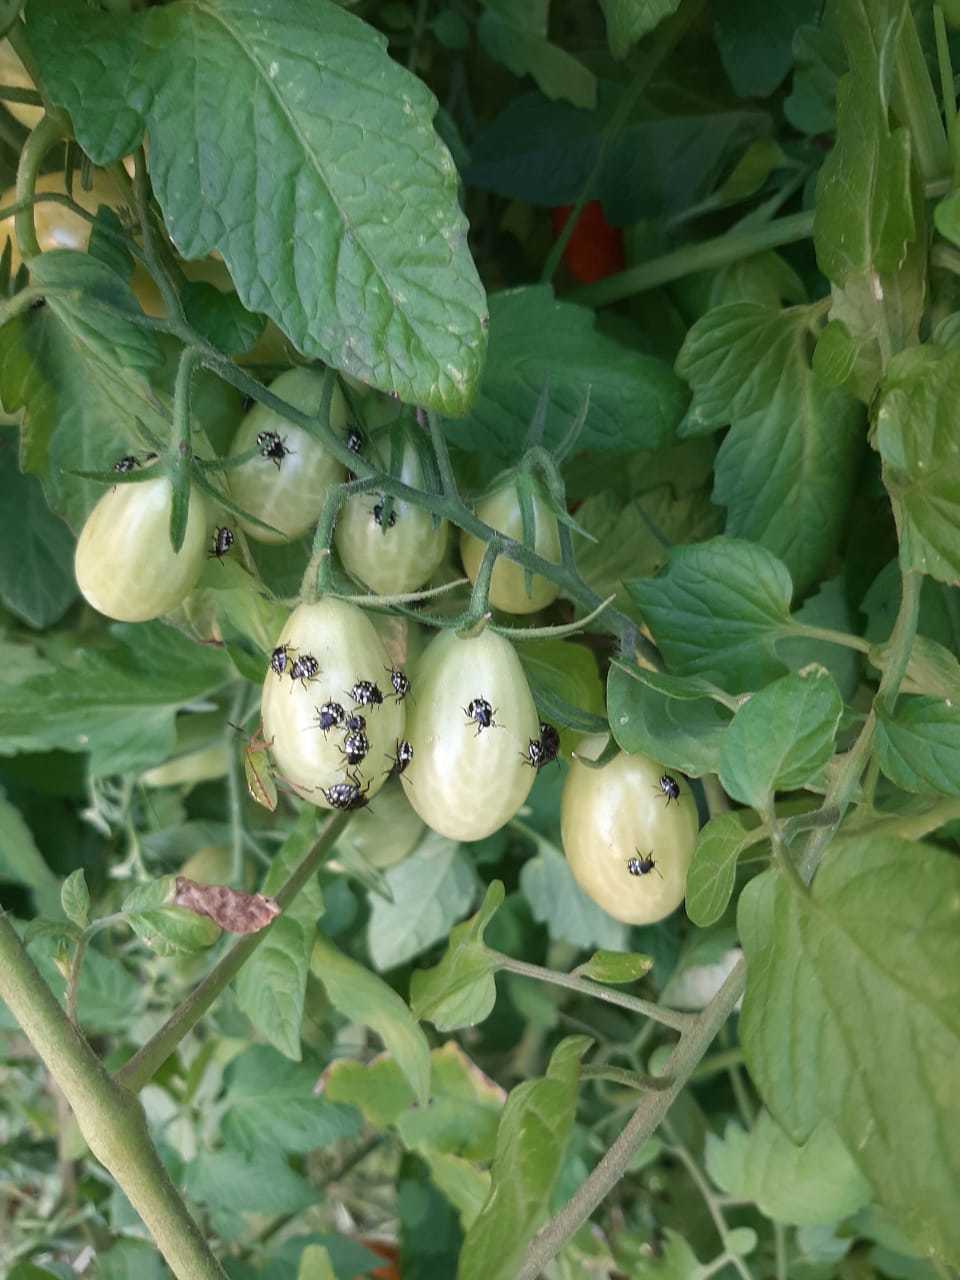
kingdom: Animalia
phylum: Arthropoda
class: Insecta
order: Hemiptera
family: Pentatomidae
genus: Nezara
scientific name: Nezara viridula
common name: Southern green stink bug
